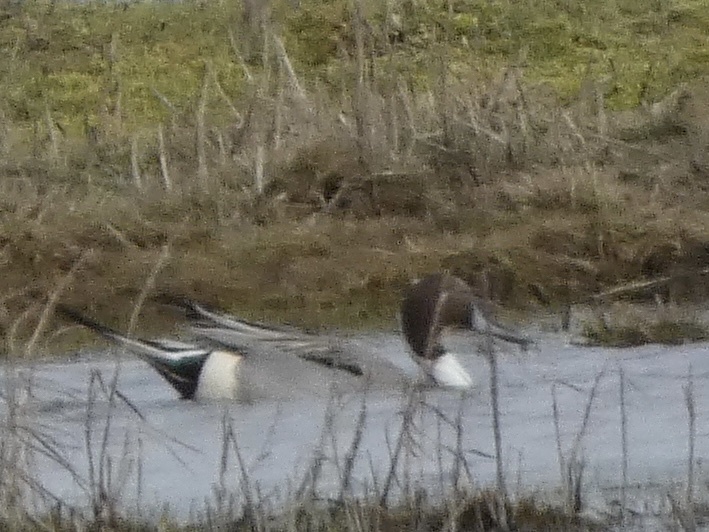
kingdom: Animalia
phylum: Chordata
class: Aves
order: Anseriformes
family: Anatidae
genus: Anas
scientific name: Anas acuta
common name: Northern pintail
